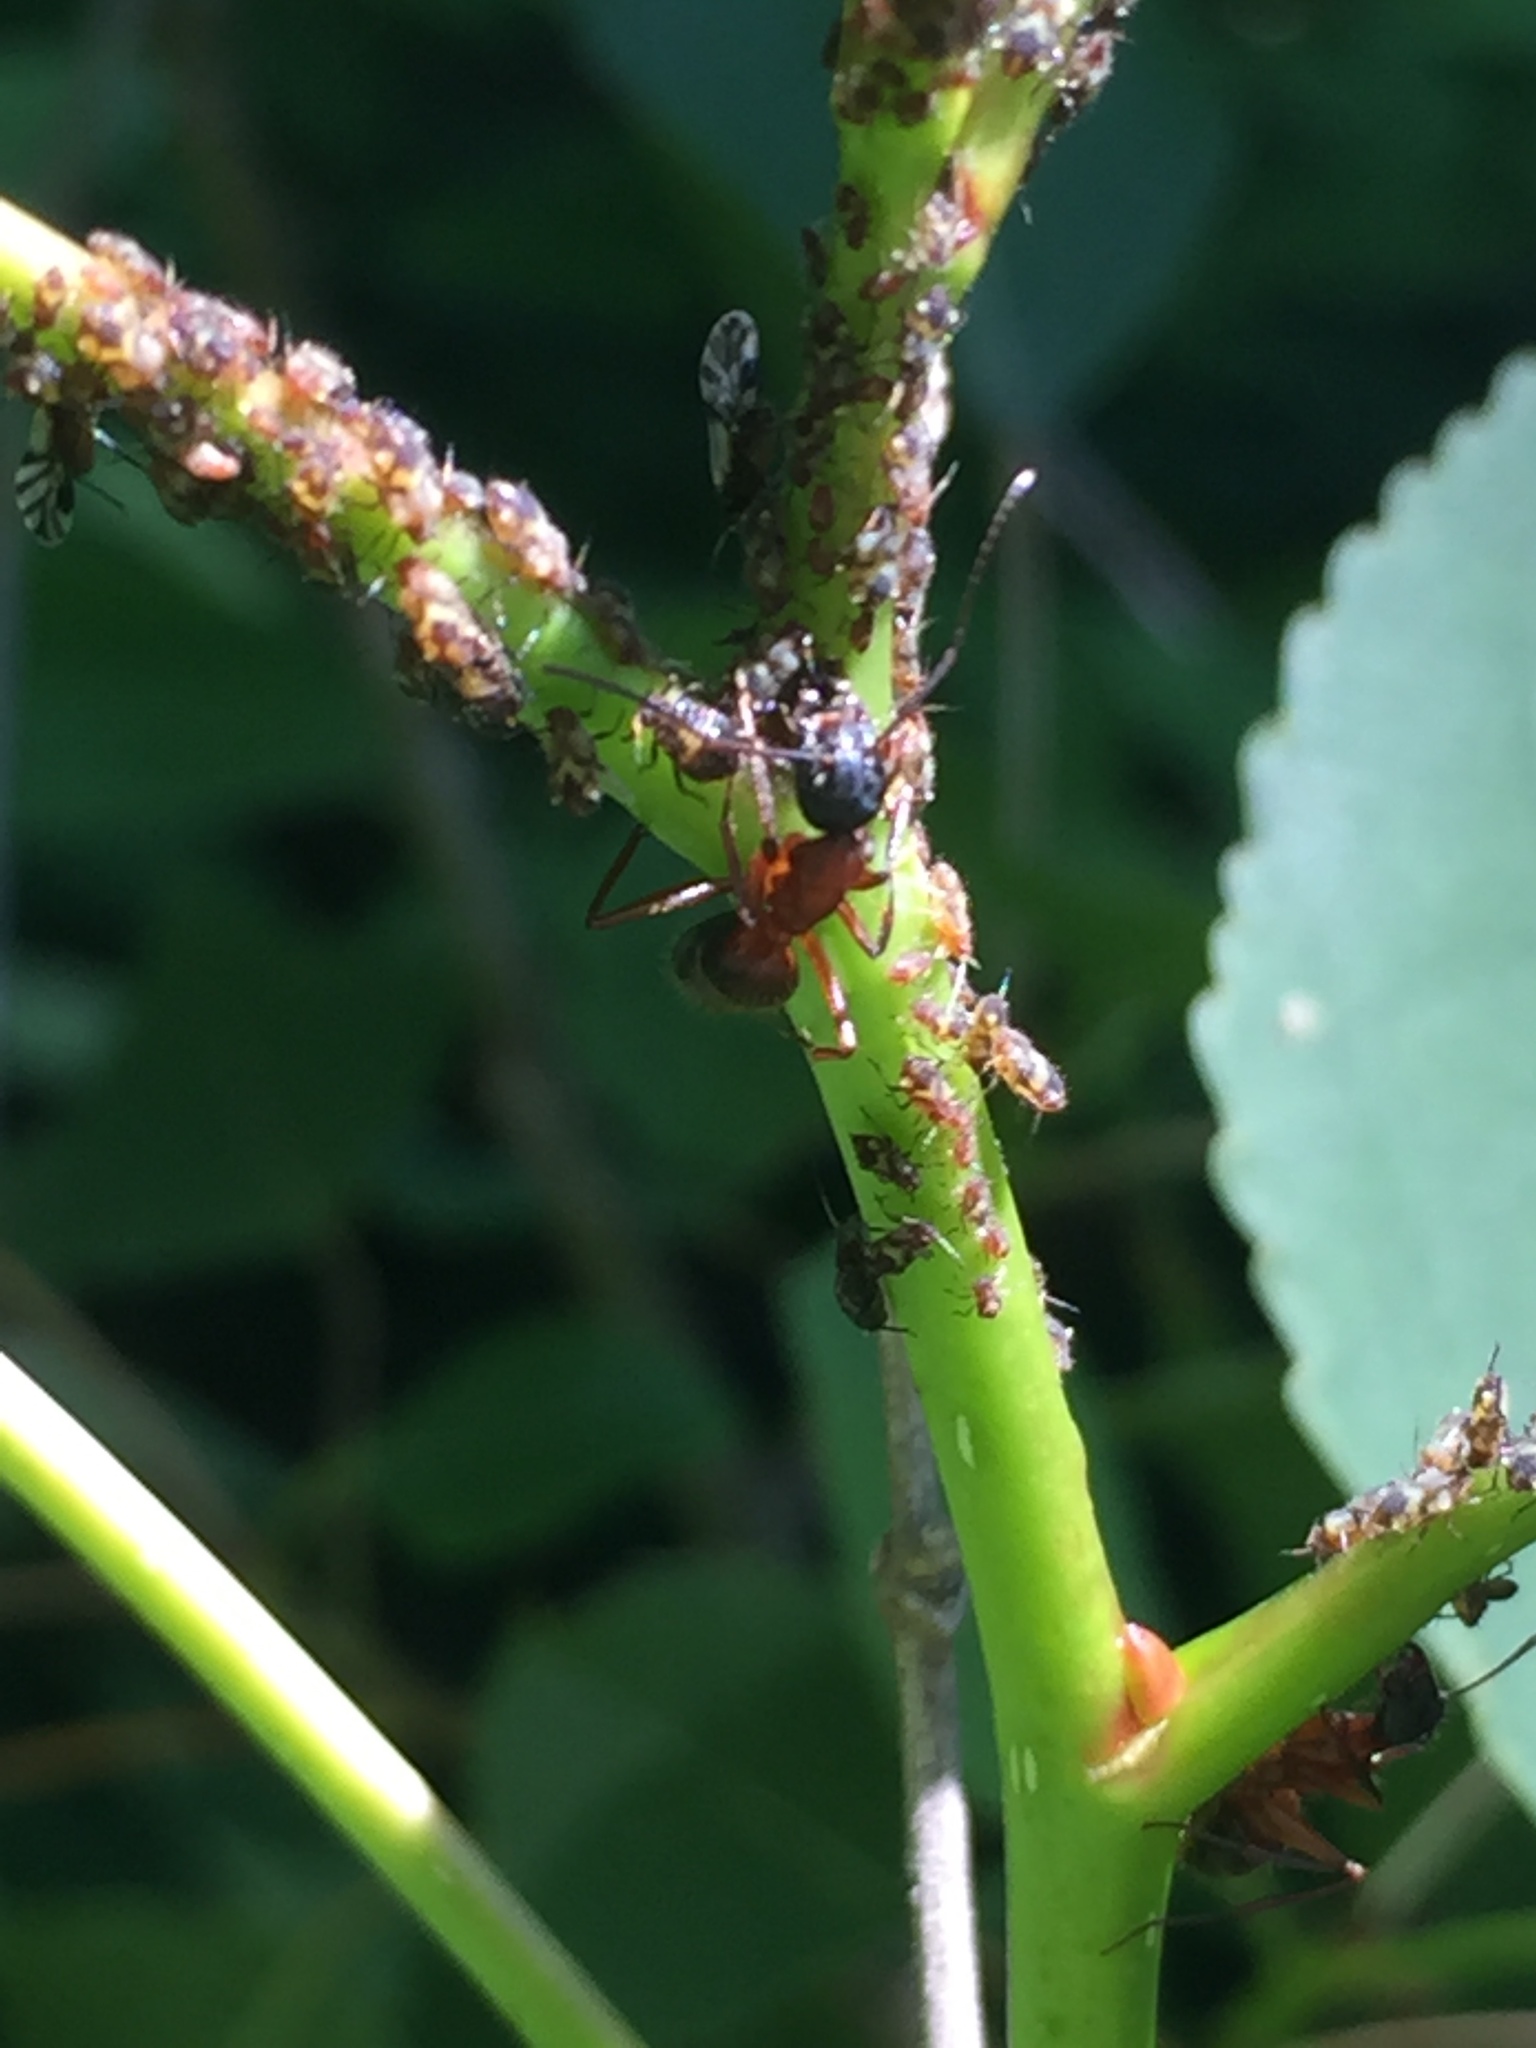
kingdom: Animalia
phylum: Arthropoda
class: Insecta
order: Hymenoptera
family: Formicidae
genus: Camponotus
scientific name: Camponotus chromaiodes
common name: Red carpenter ant
